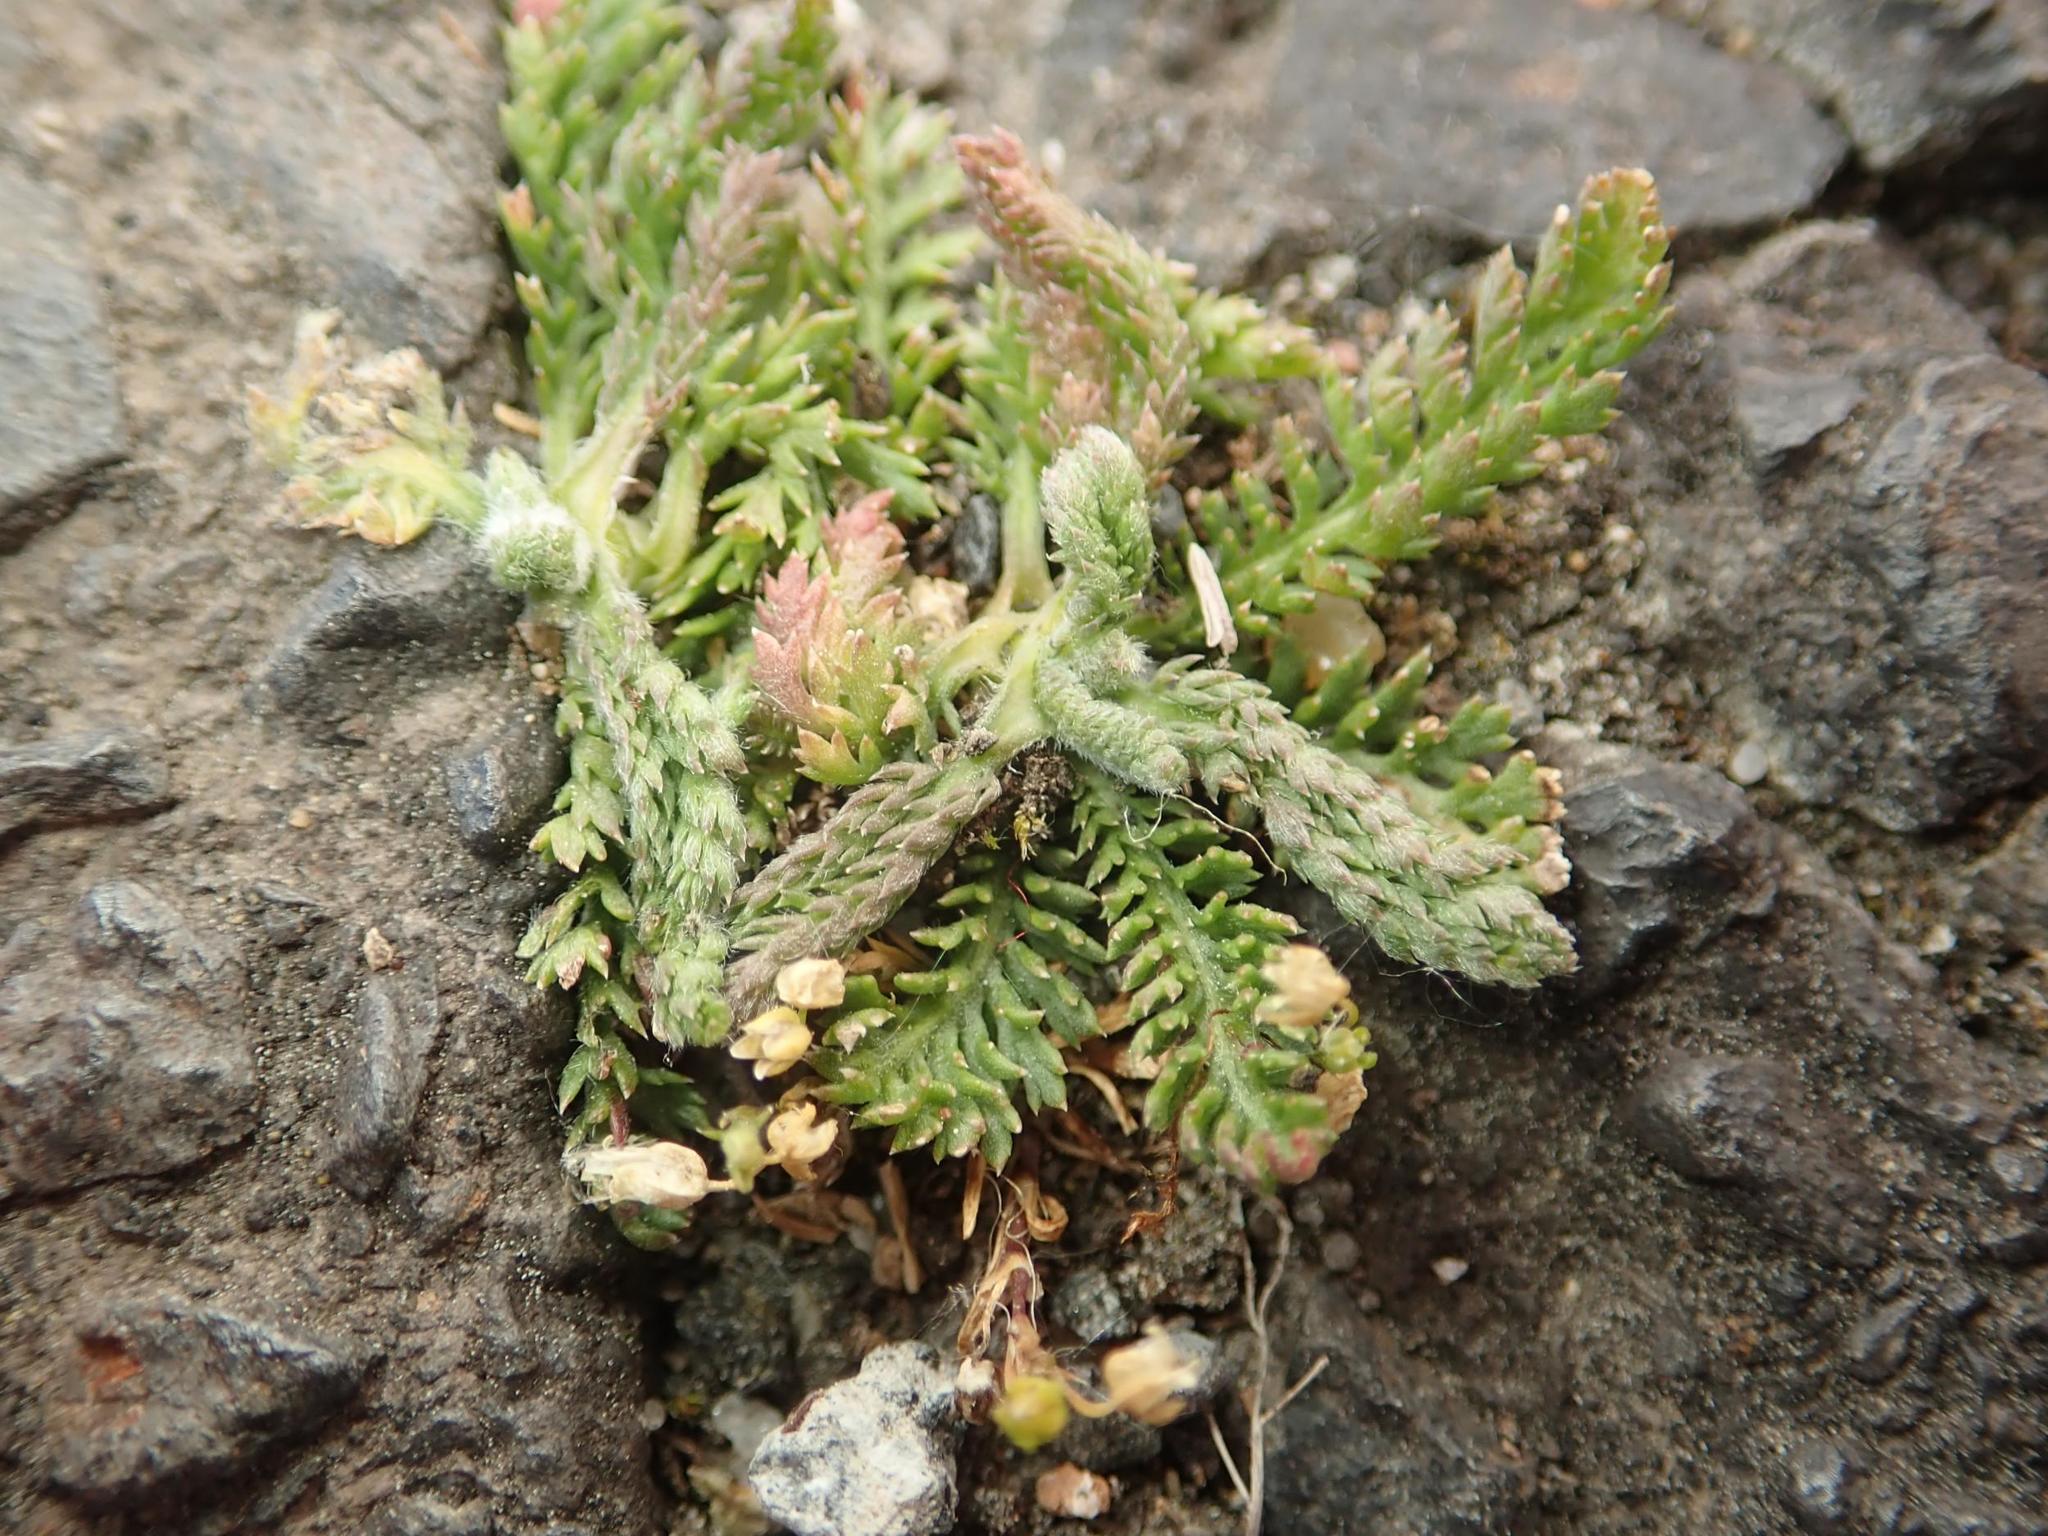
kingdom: Plantae
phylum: Tracheophyta
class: Magnoliopsida
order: Asterales
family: Asteraceae
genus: Achillea
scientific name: Achillea millefolium
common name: Yarrow
